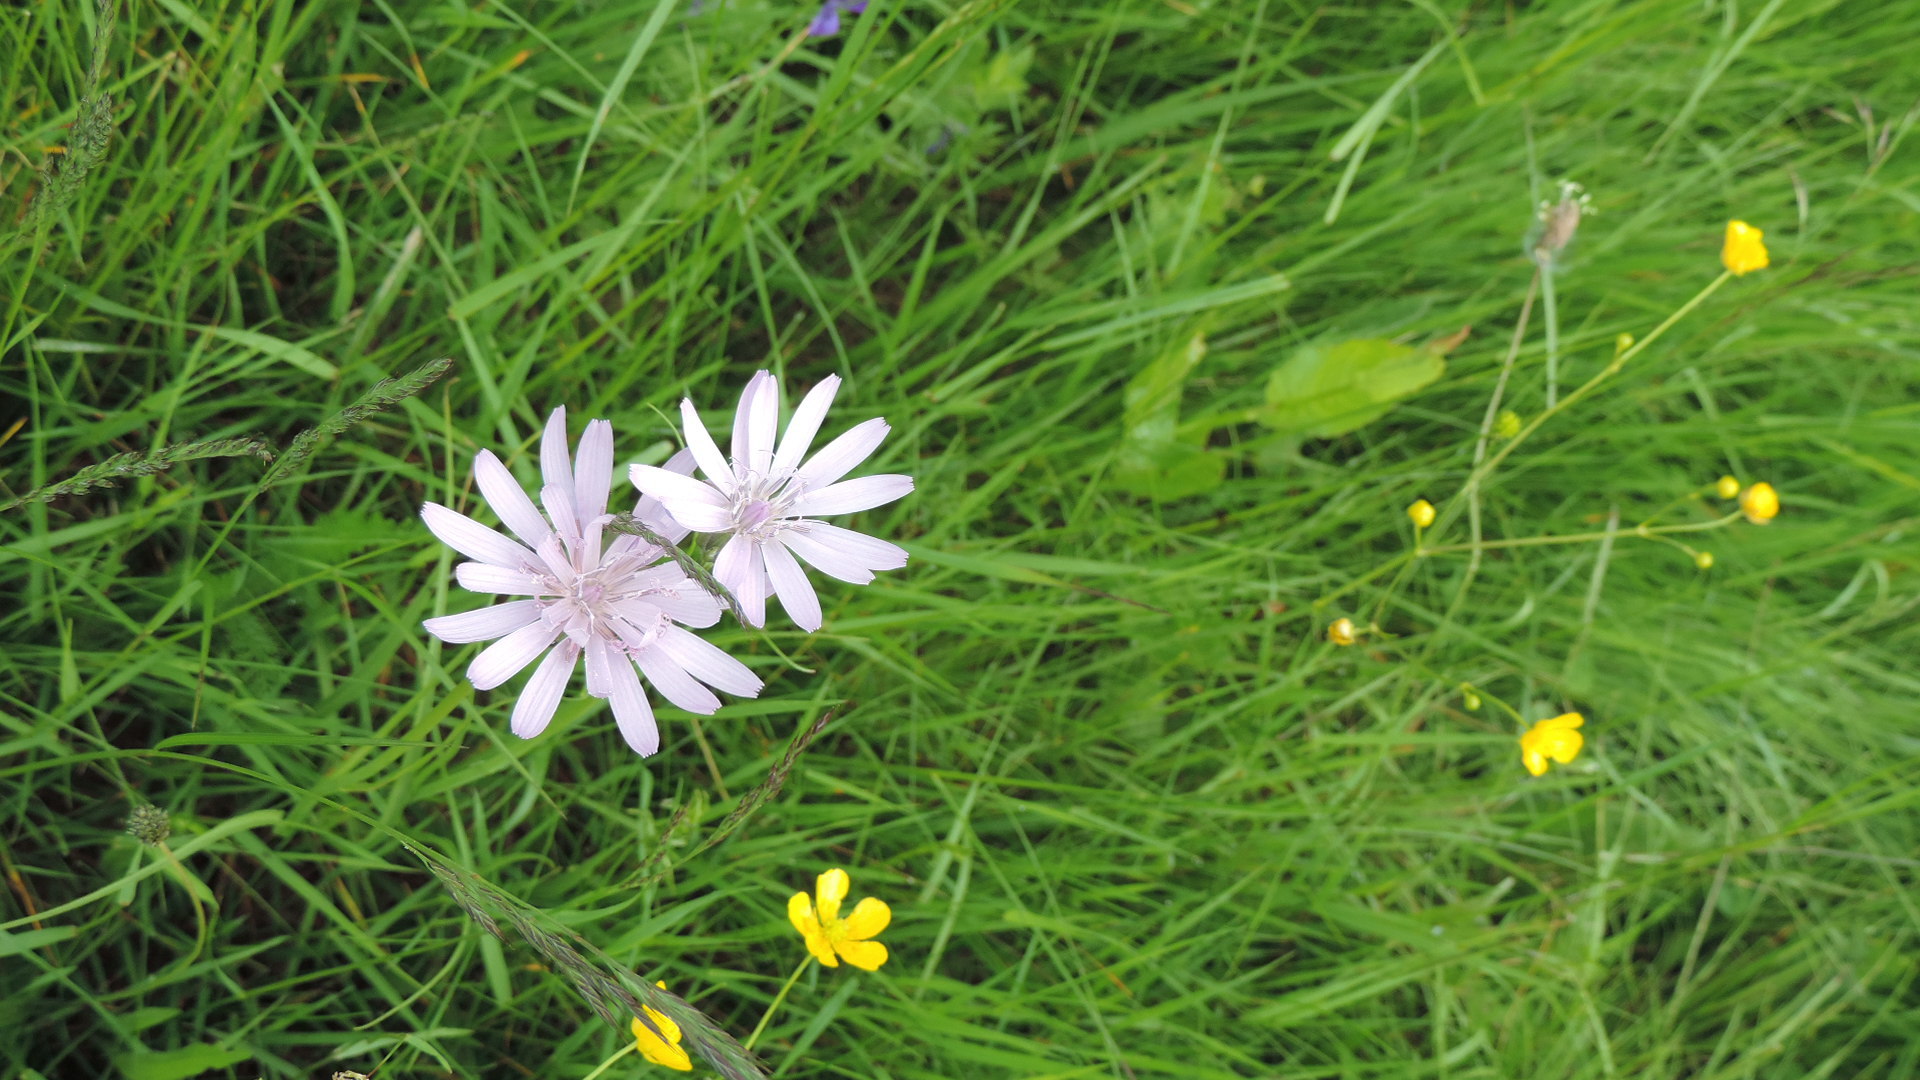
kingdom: Plantae
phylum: Tracheophyta
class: Magnoliopsida
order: Asterales
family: Asteraceae
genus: Scorzonera
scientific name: Scorzonera rosea
